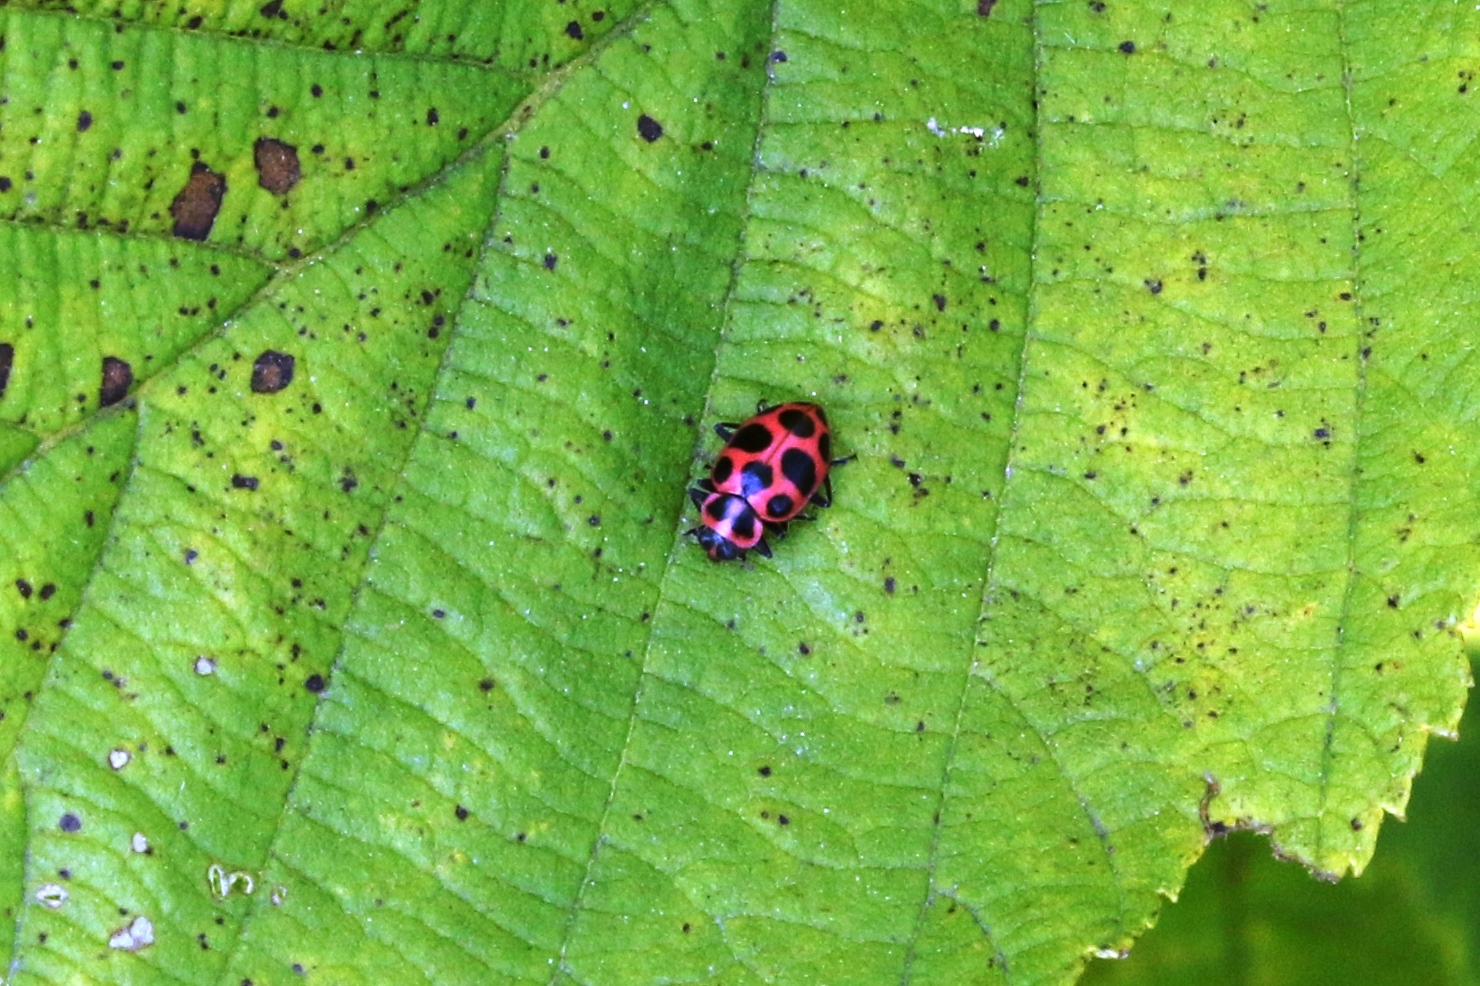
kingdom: Animalia
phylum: Arthropoda
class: Insecta
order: Coleoptera
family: Coccinellidae
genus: Coleomegilla
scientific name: Coleomegilla maculata
